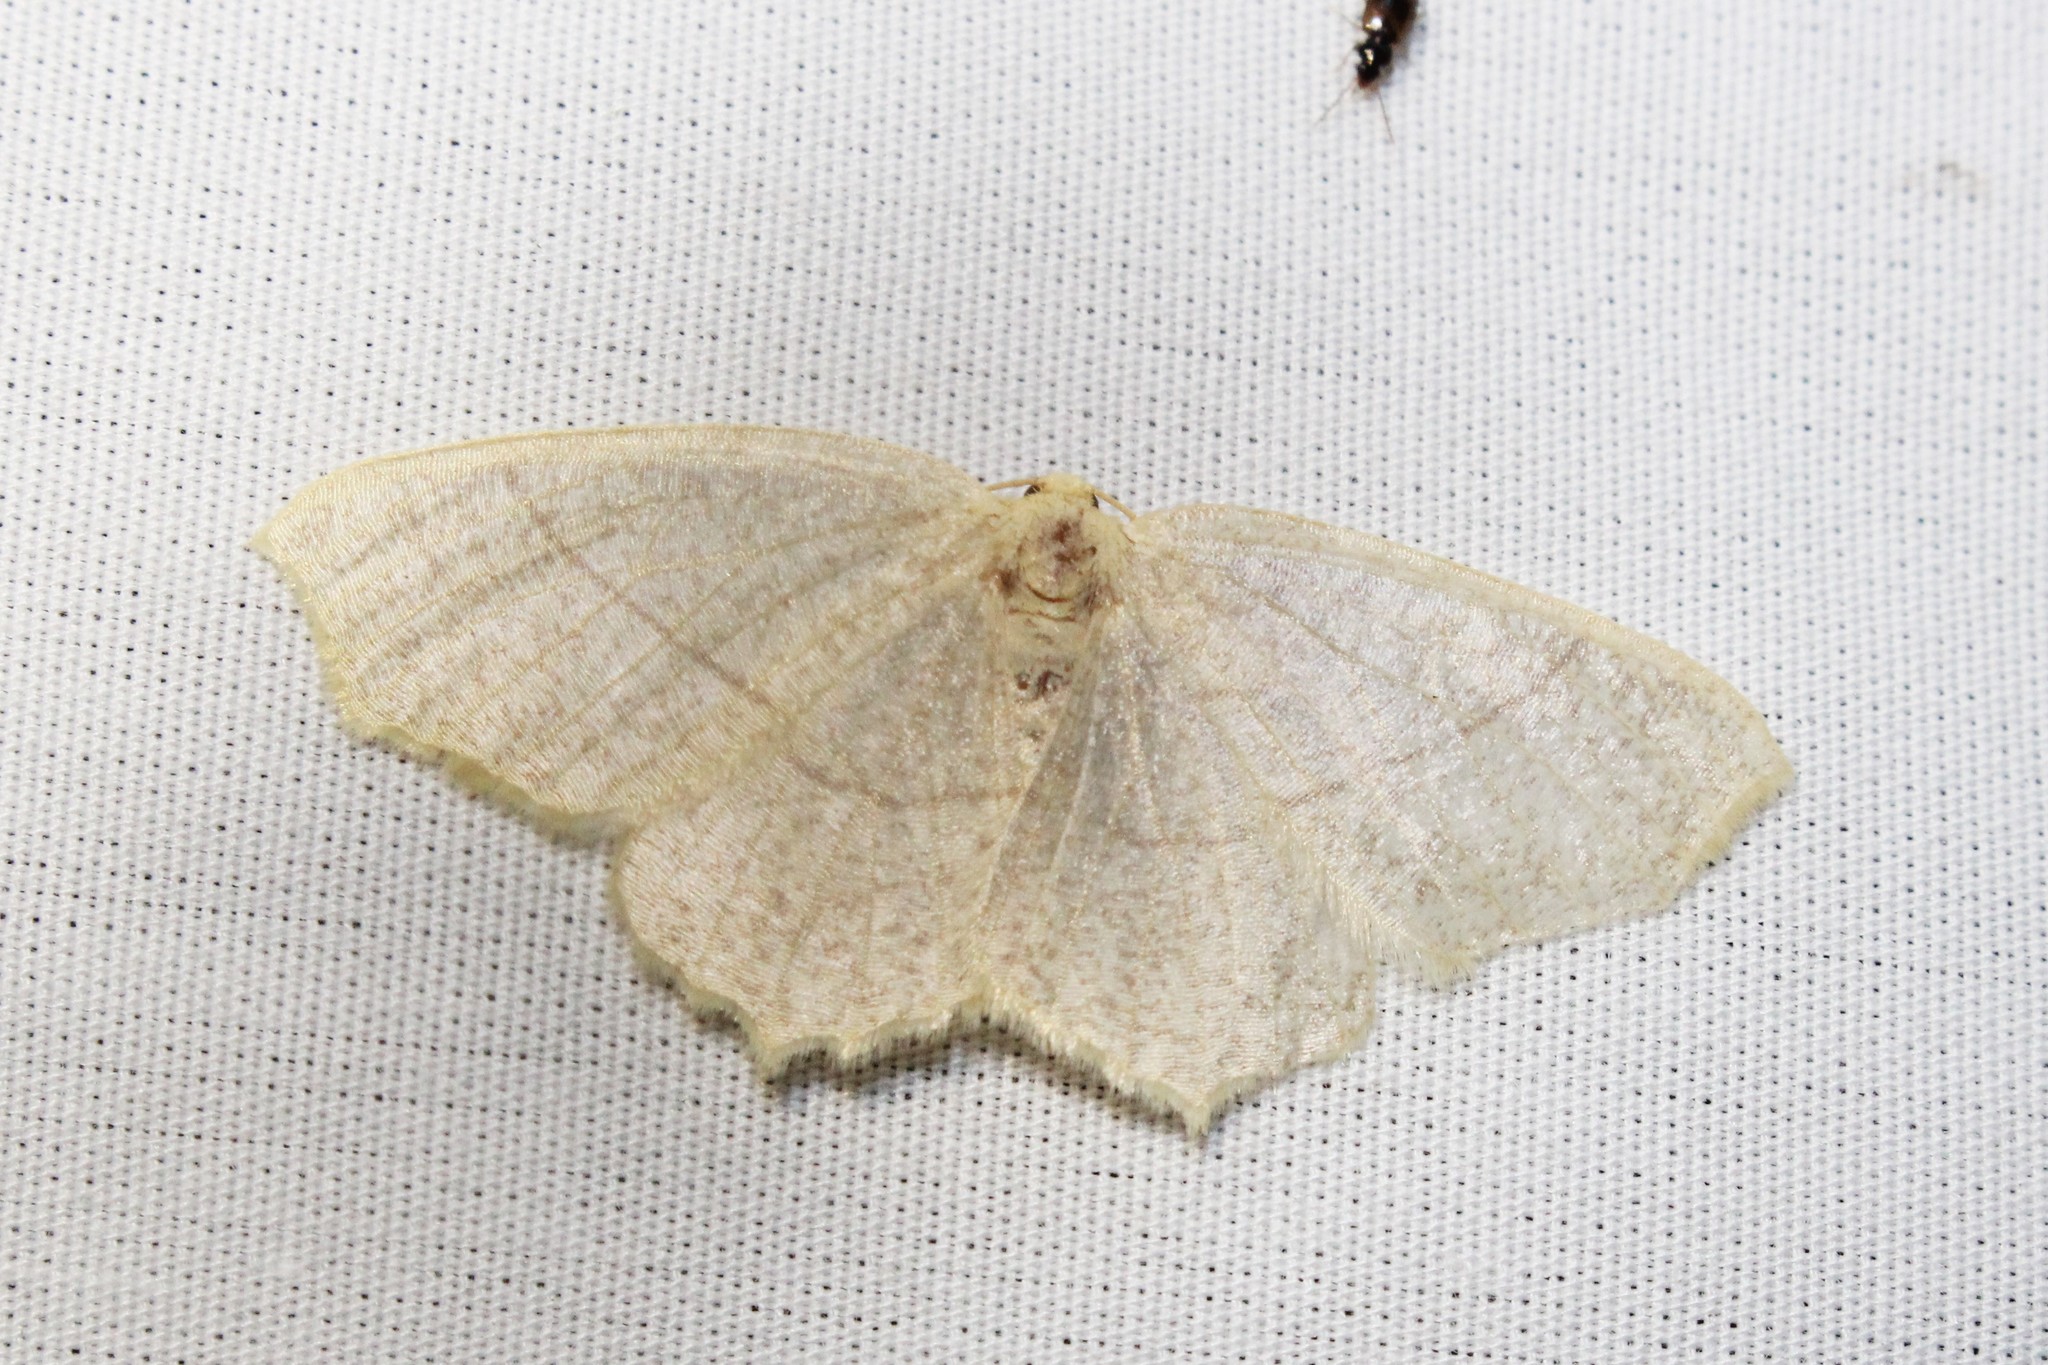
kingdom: Animalia
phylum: Arthropoda
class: Insecta
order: Lepidoptera
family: Geometridae
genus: Besma
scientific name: Besma endropiaria
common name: Straw besma
